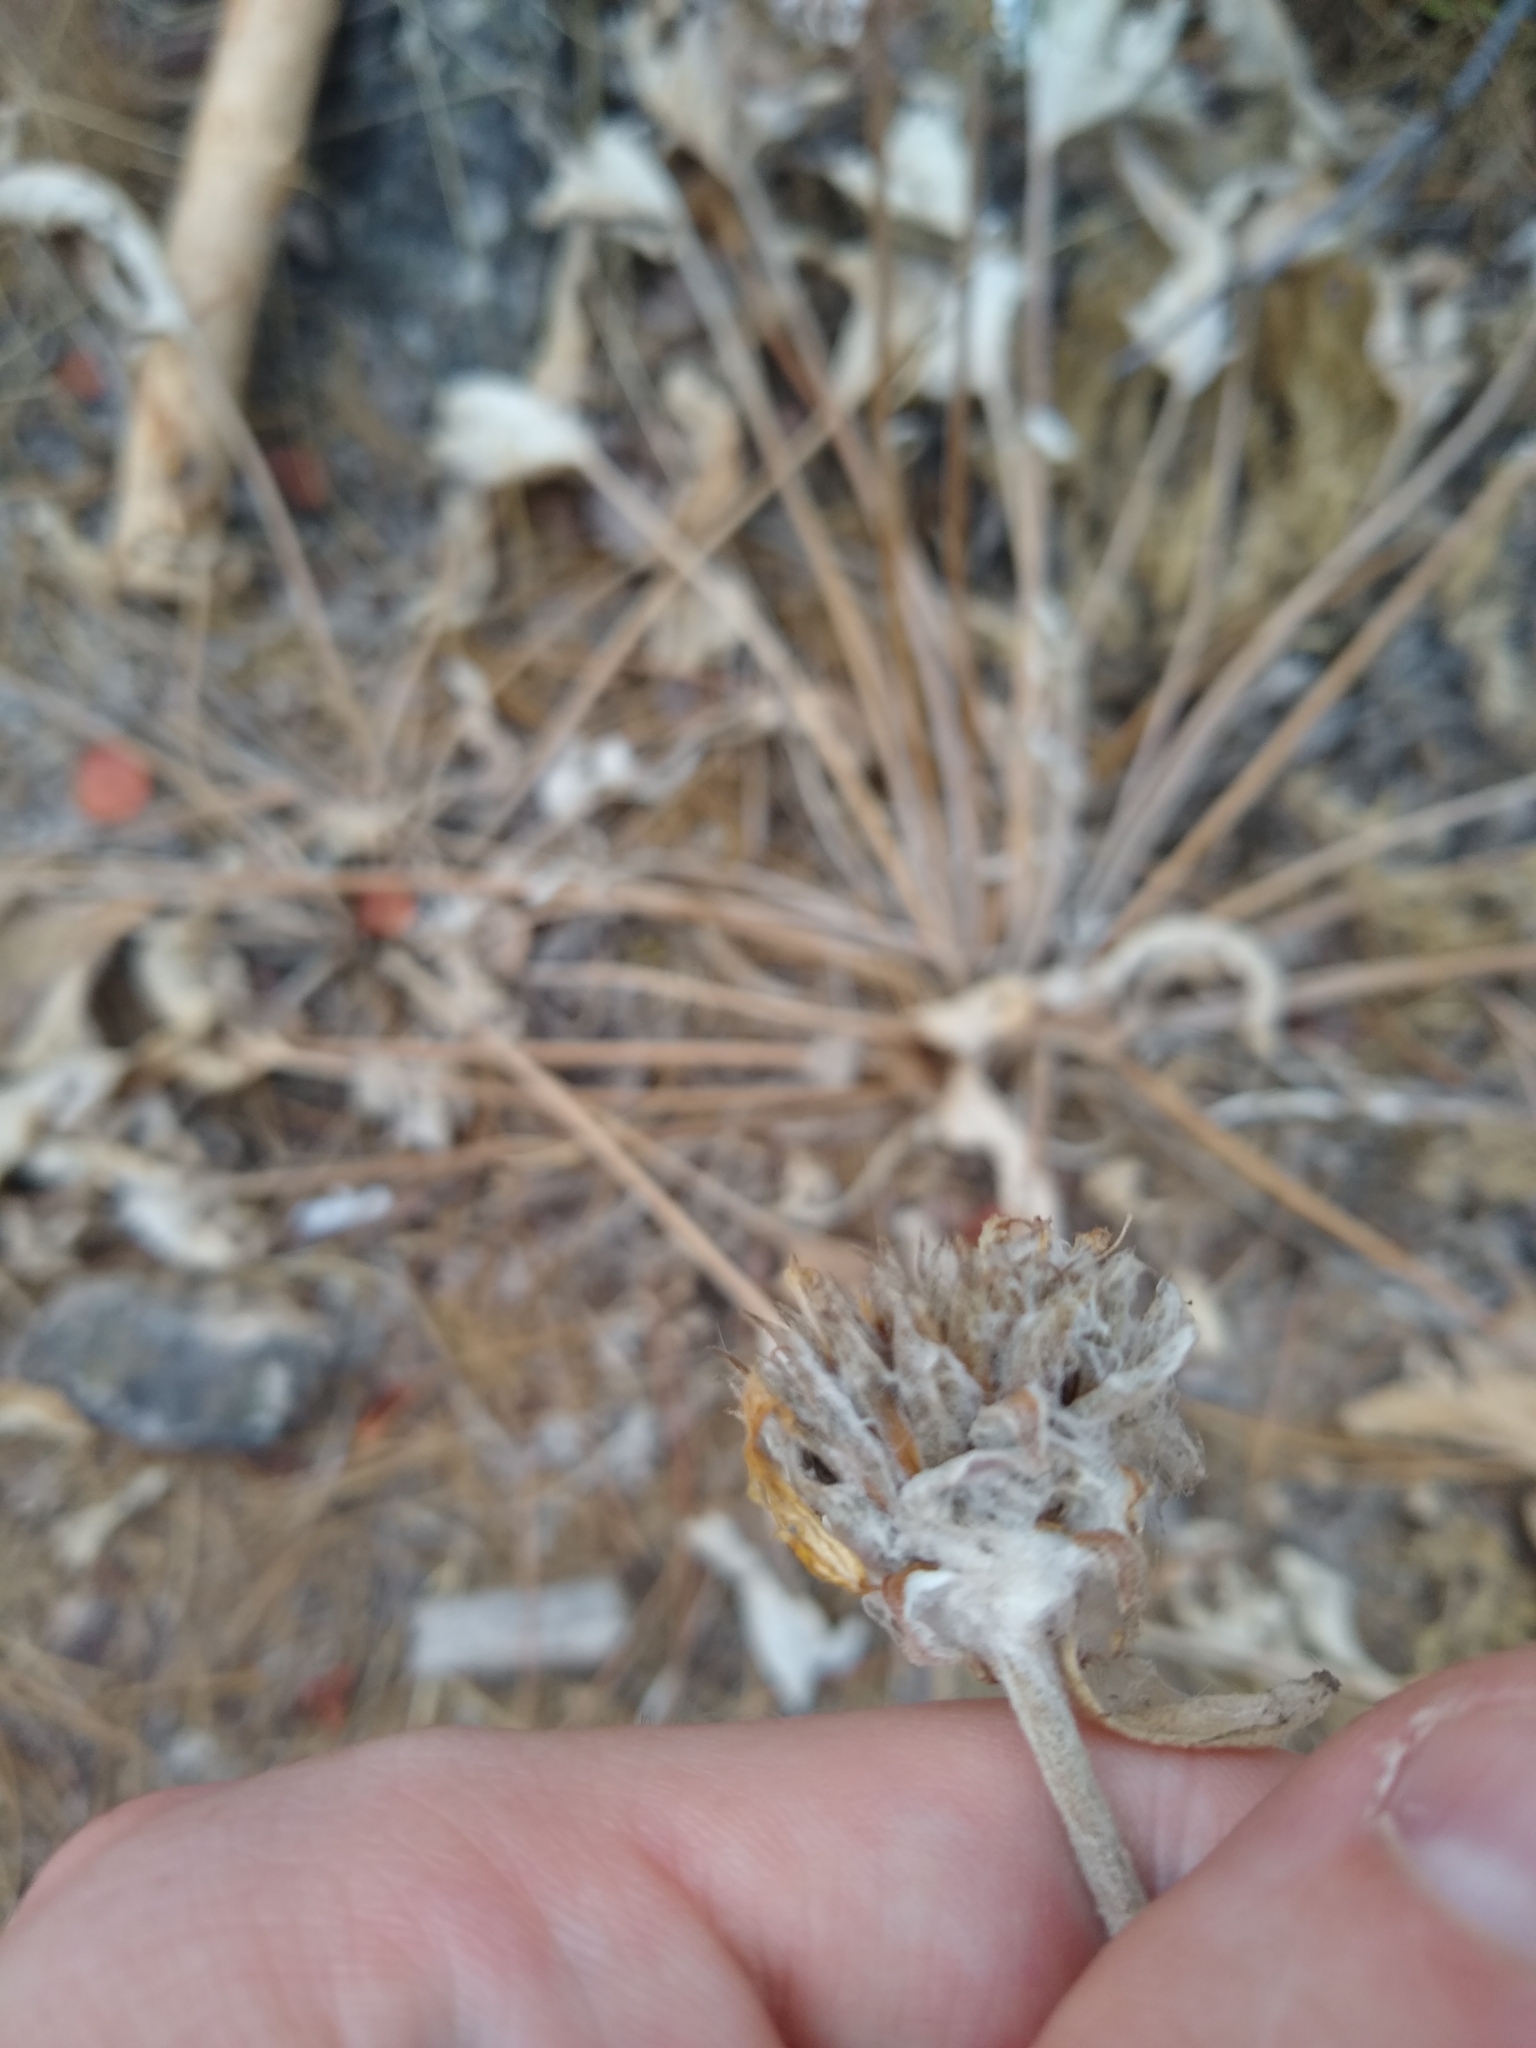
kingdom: Plantae
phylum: Tracheophyta
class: Magnoliopsida
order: Asterales
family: Asteraceae
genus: Wyethia
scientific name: Wyethia sagittata
